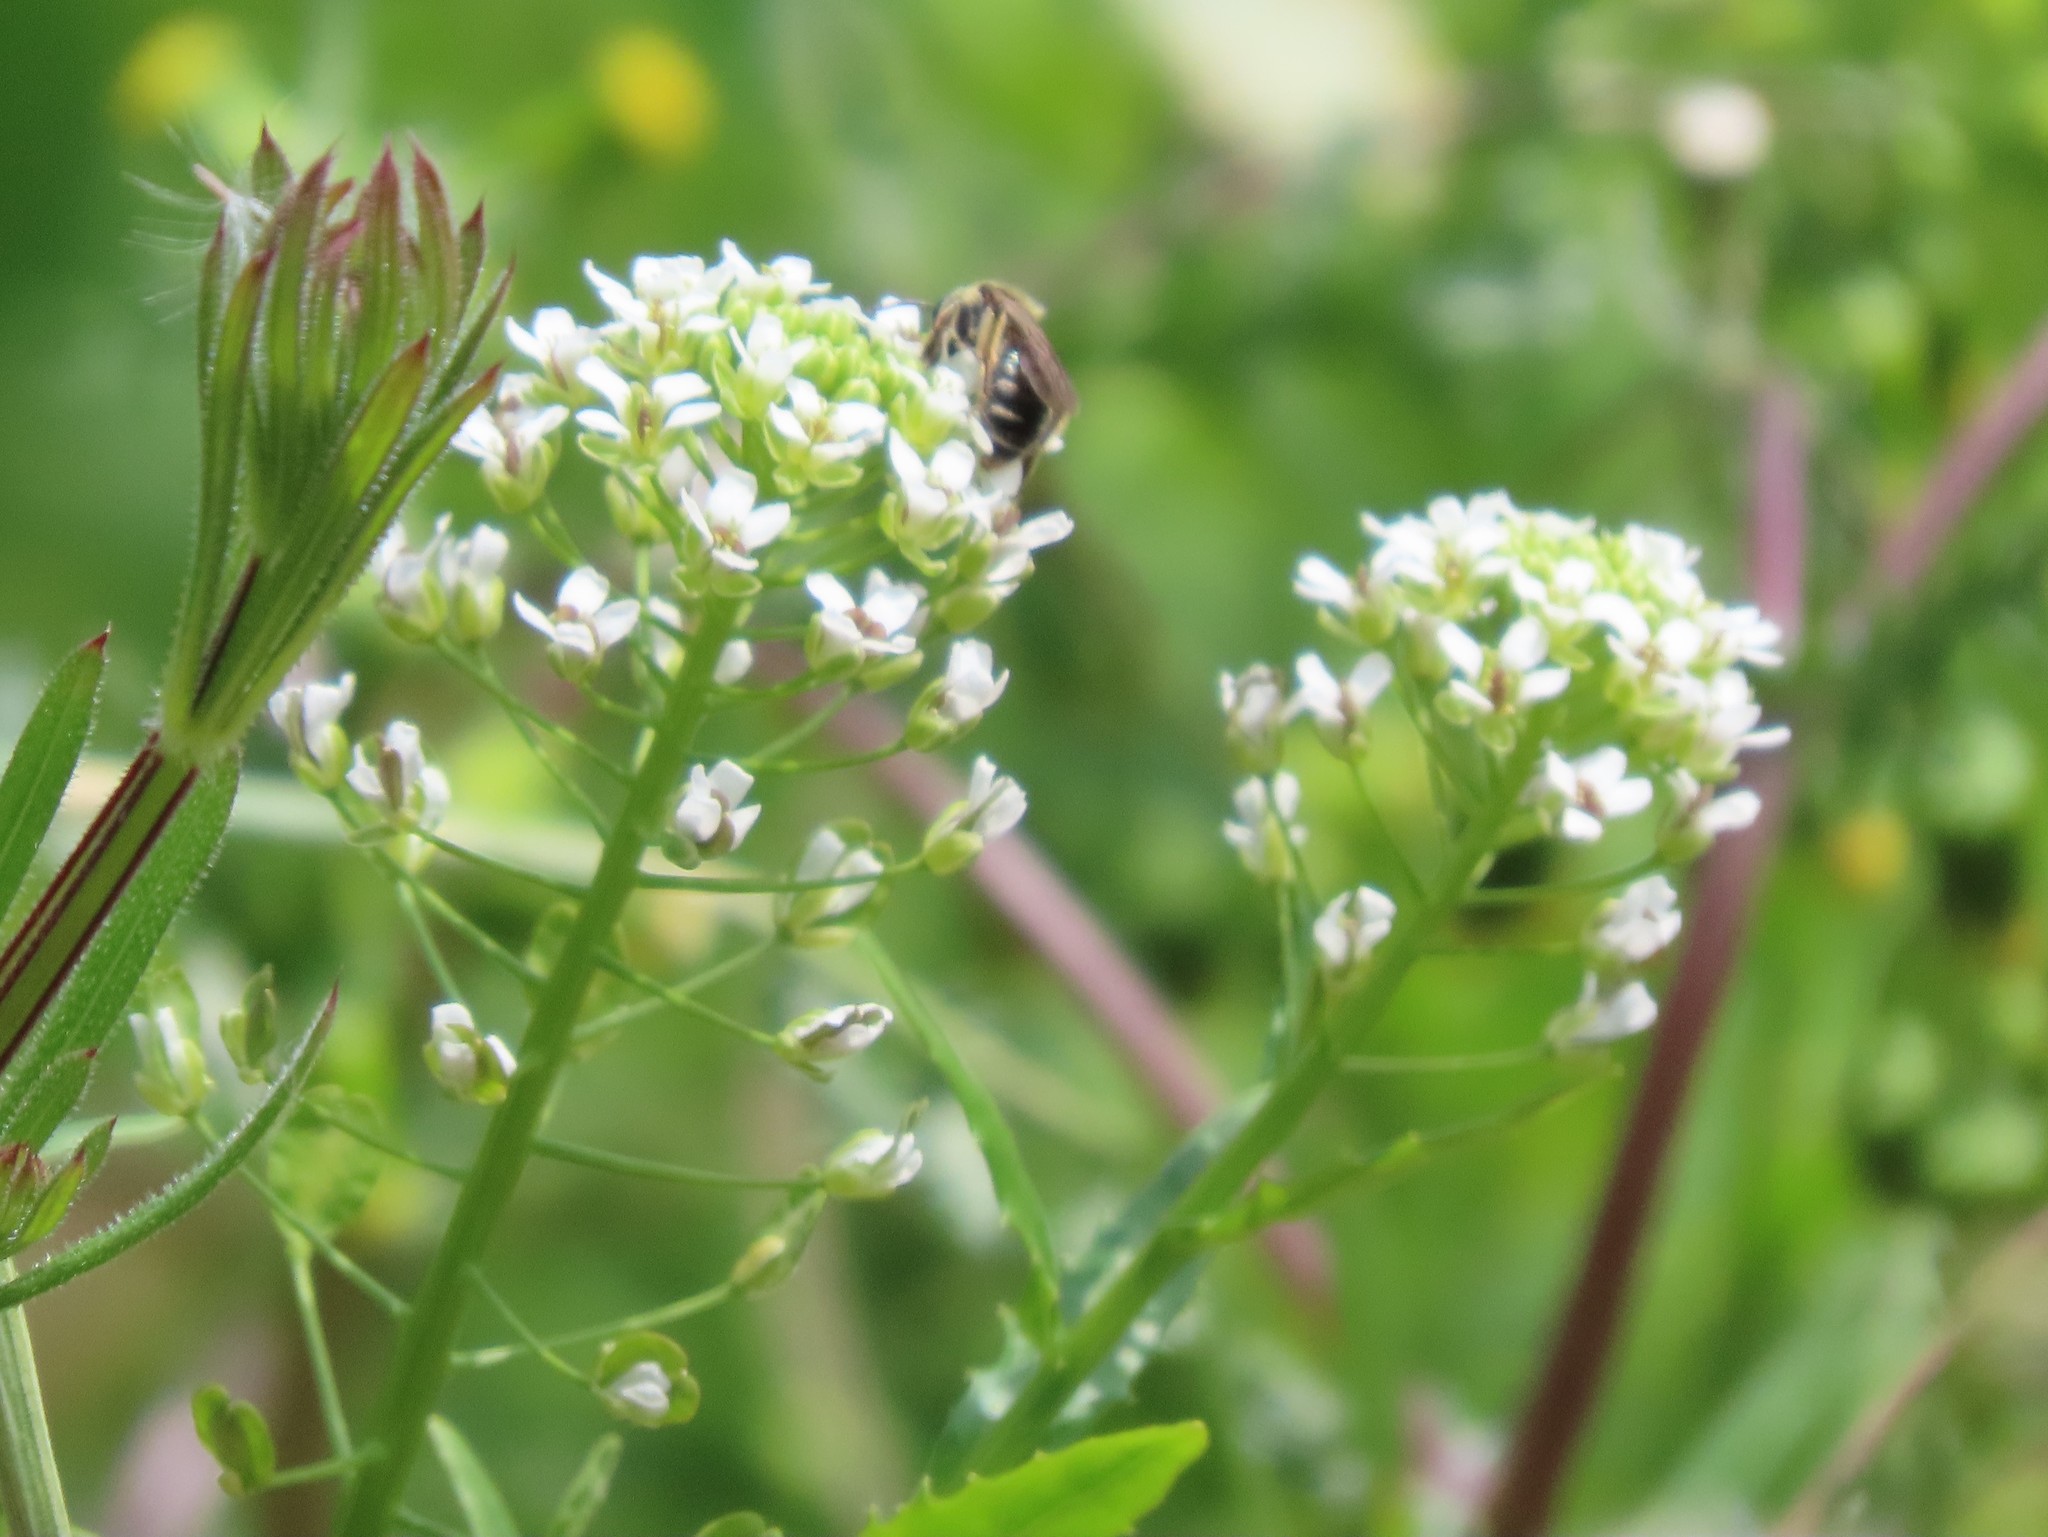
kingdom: Plantae
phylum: Tracheophyta
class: Magnoliopsida
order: Brassicales
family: Brassicaceae
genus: Thlaspi
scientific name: Thlaspi arvense
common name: Field pennycress
